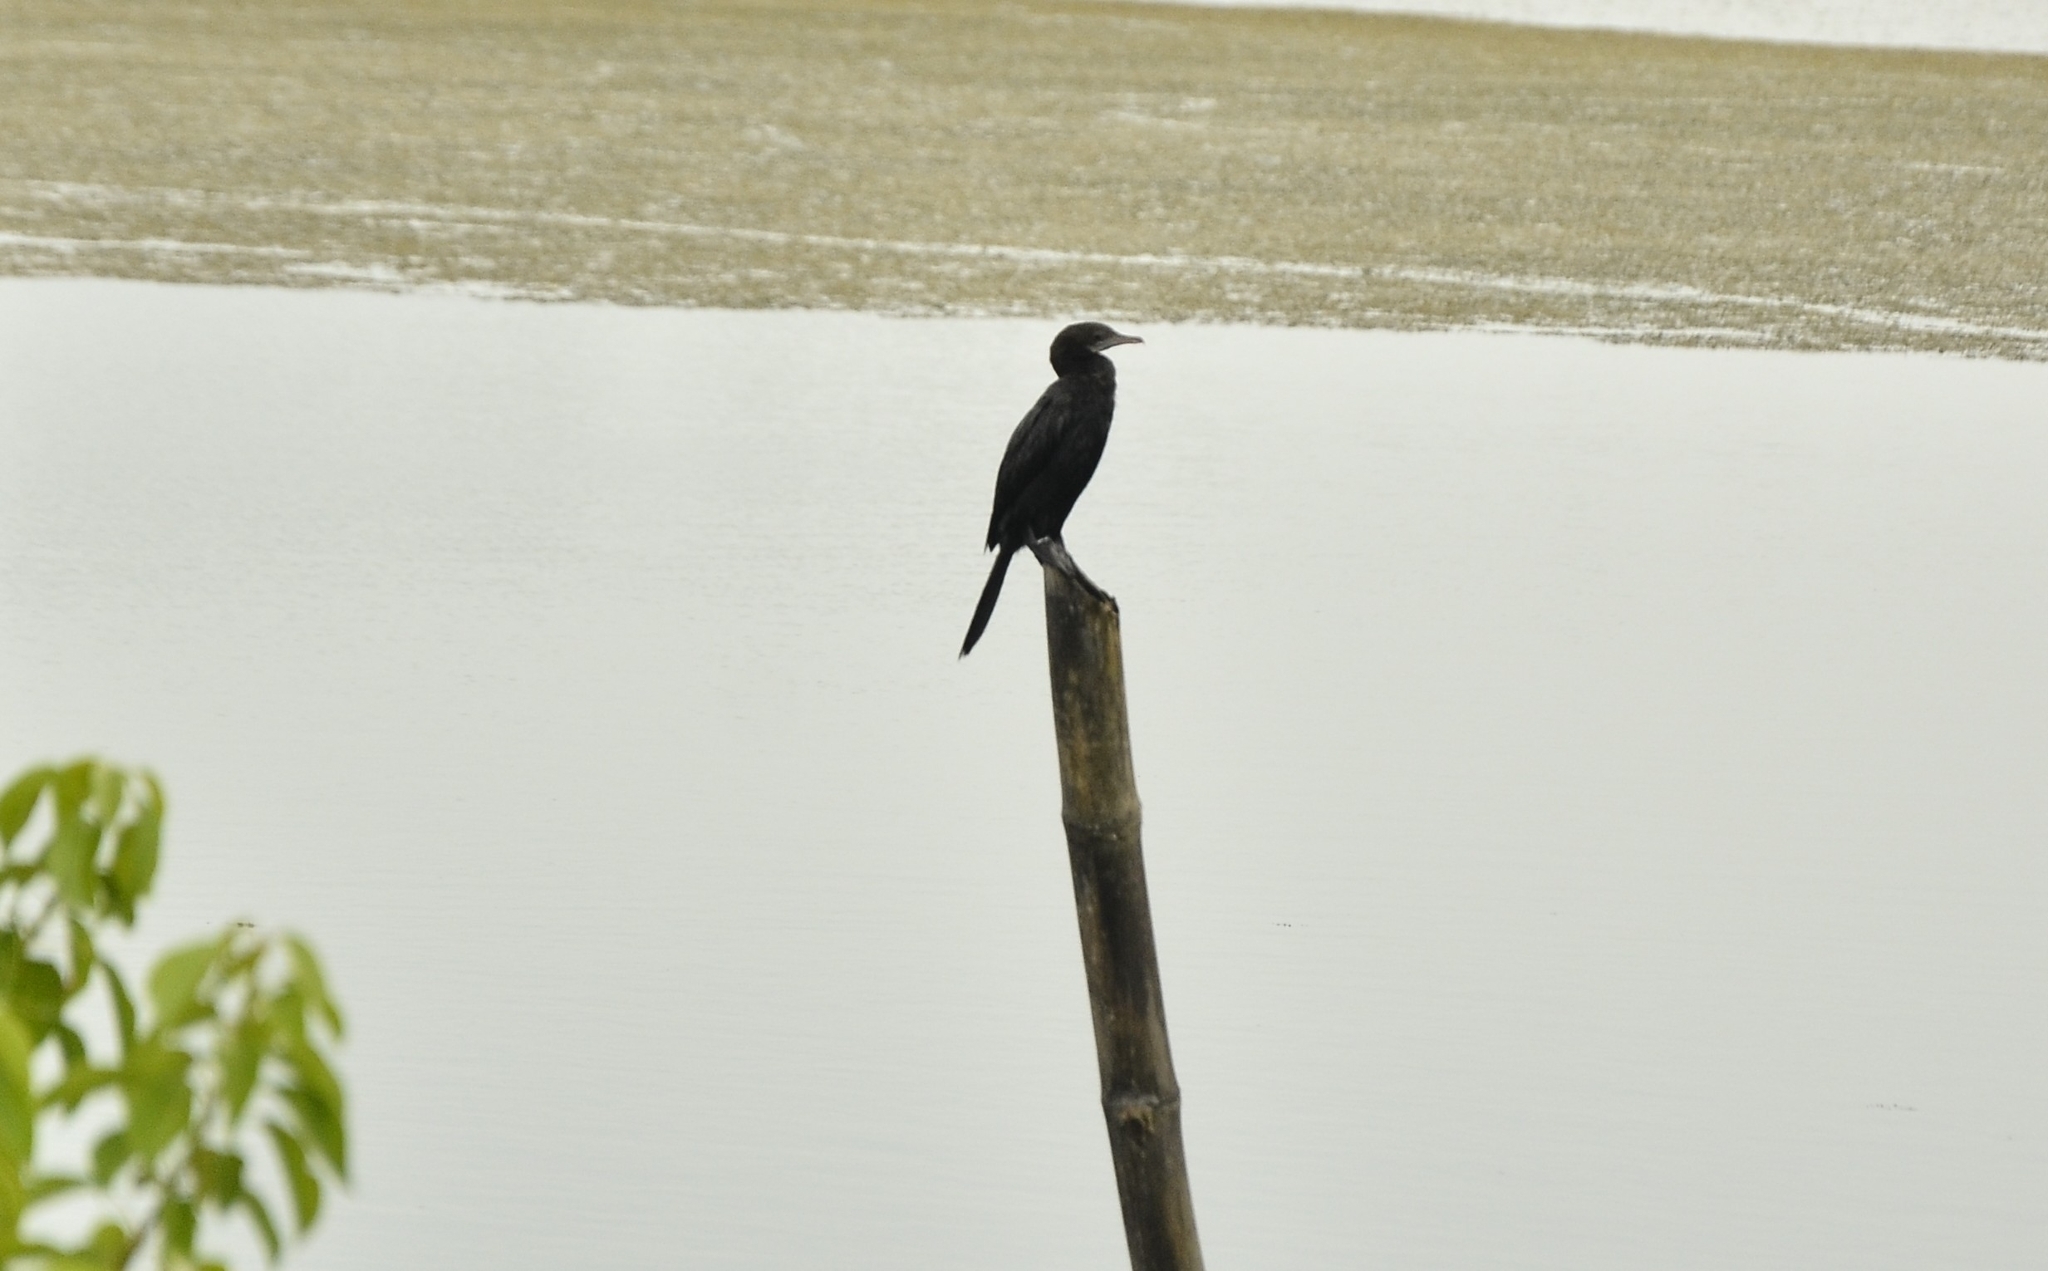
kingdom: Animalia
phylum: Chordata
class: Aves
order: Suliformes
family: Phalacrocoracidae
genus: Microcarbo
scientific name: Microcarbo niger
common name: Little cormorant
